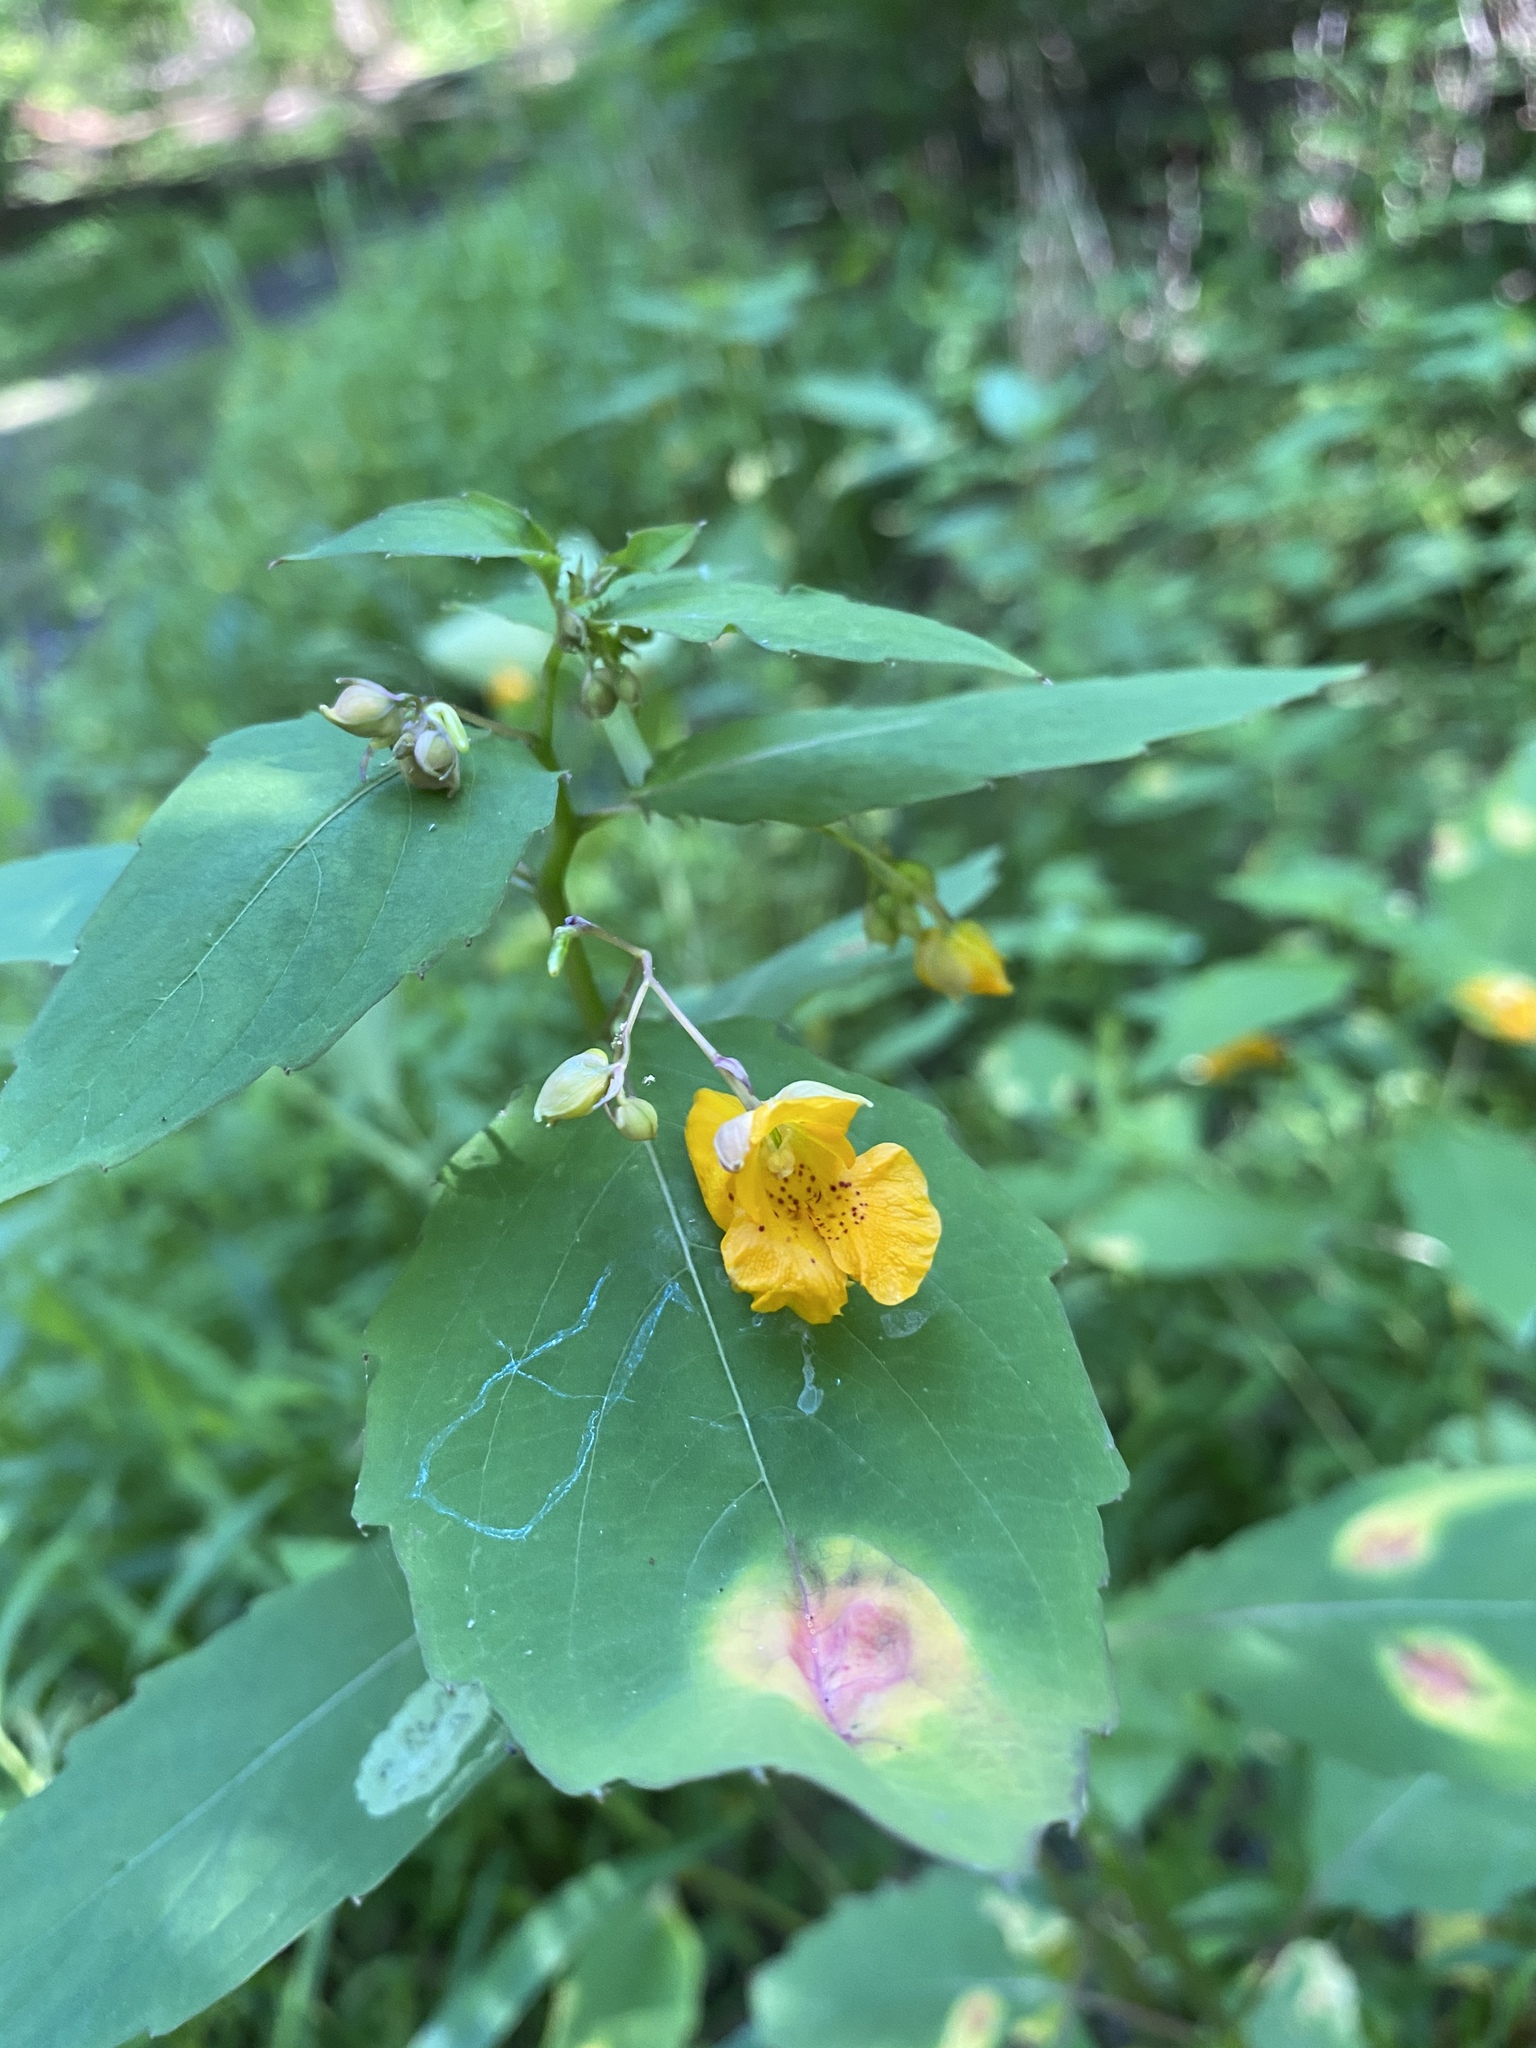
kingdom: Plantae
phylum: Tracheophyta
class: Magnoliopsida
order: Ericales
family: Balsaminaceae
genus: Impatiens
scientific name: Impatiens capensis
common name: Orange balsam
